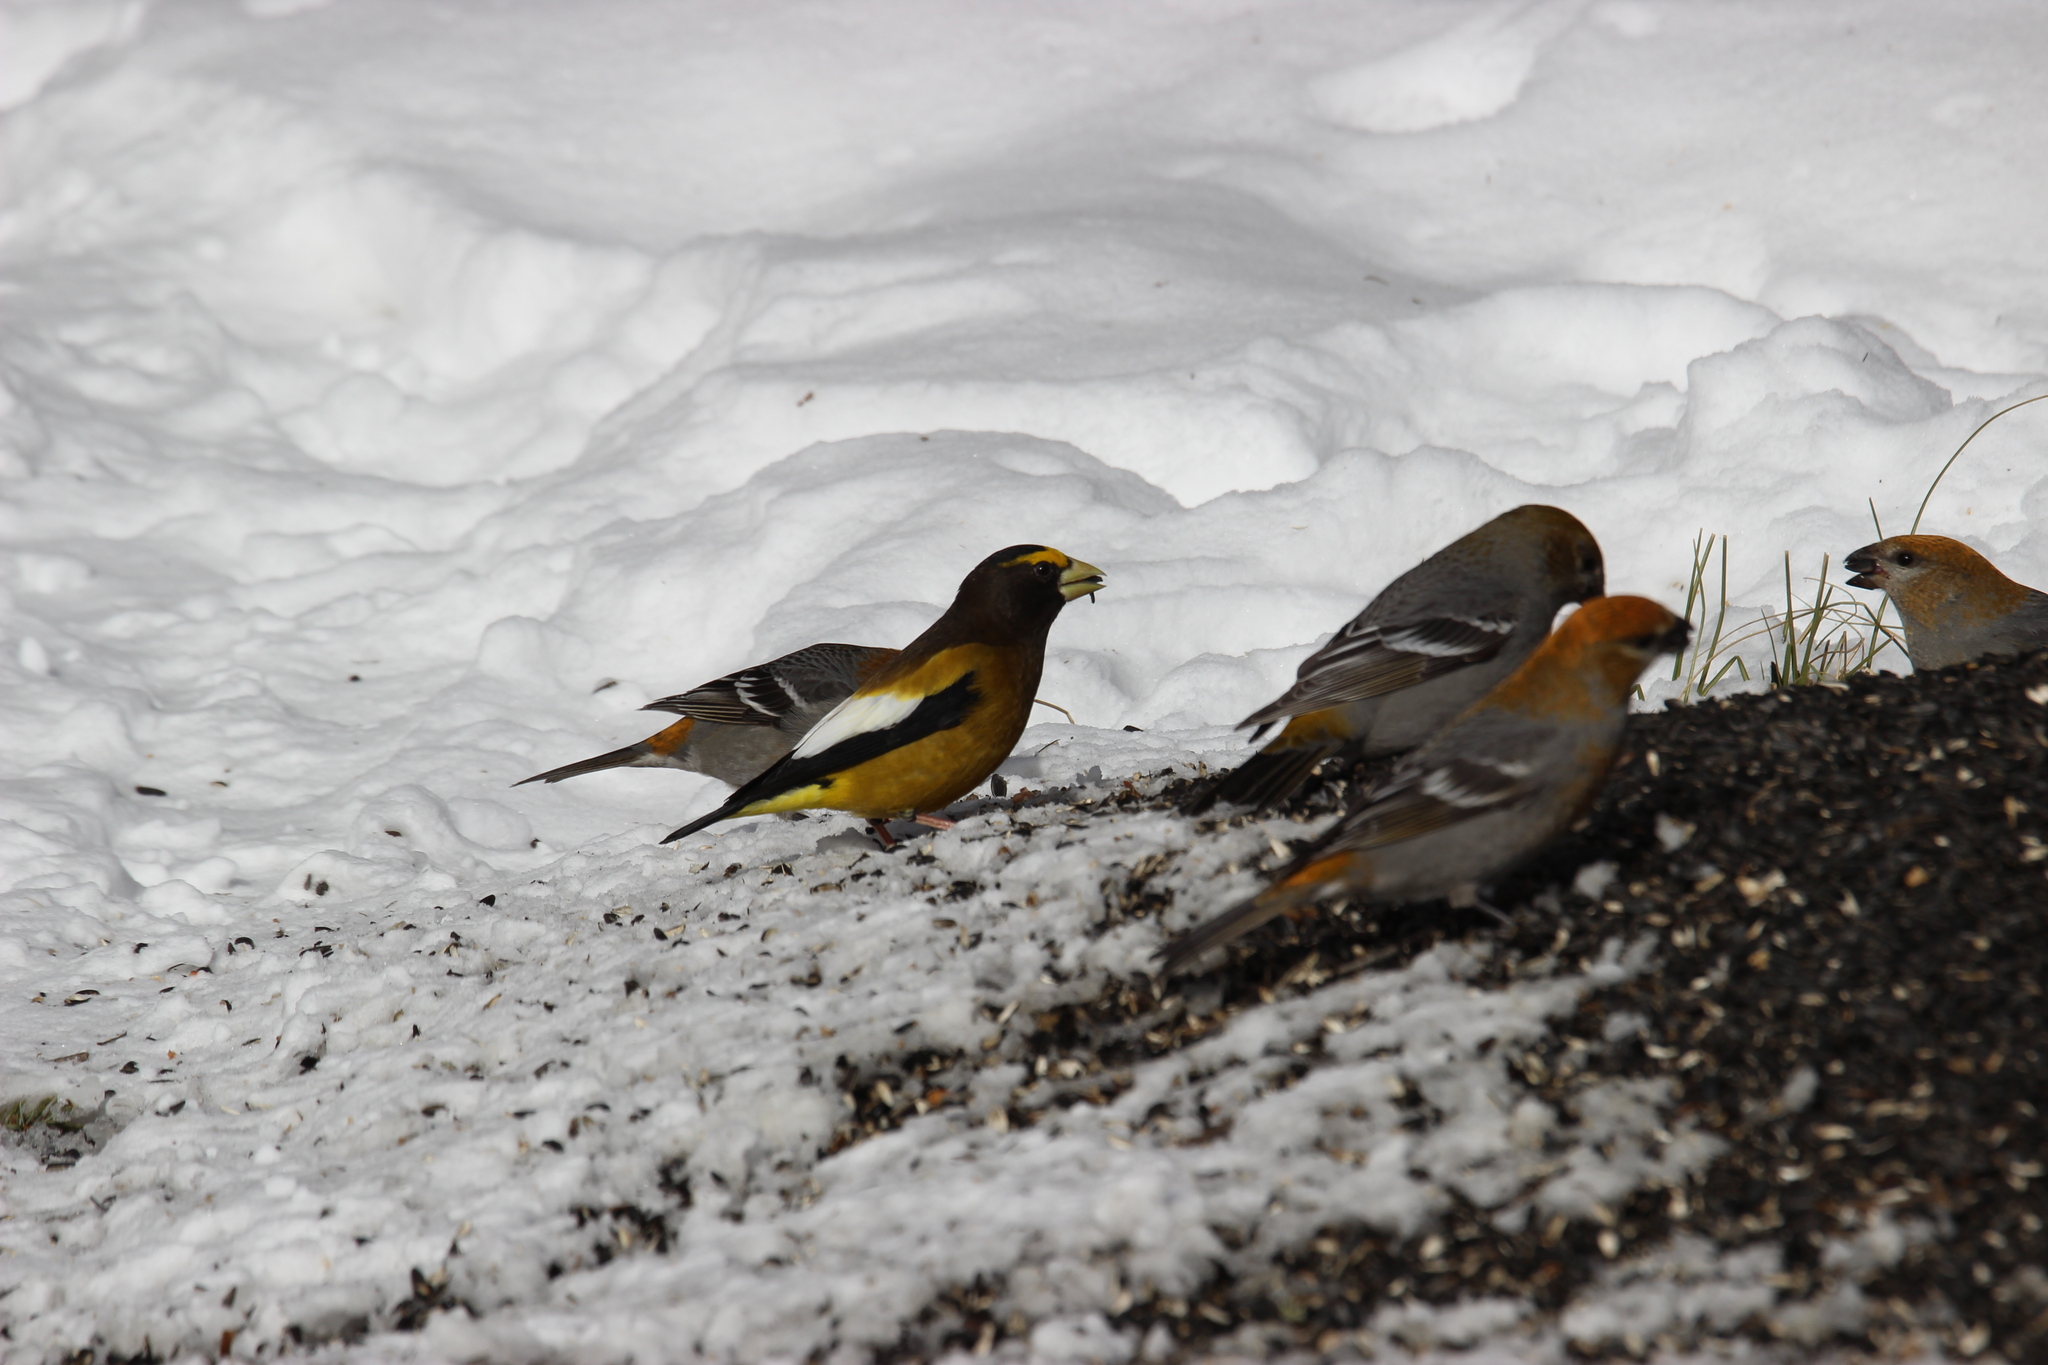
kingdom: Animalia
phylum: Chordata
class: Aves
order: Passeriformes
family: Fringillidae
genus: Hesperiphona
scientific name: Hesperiphona vespertina
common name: Evening grosbeak
